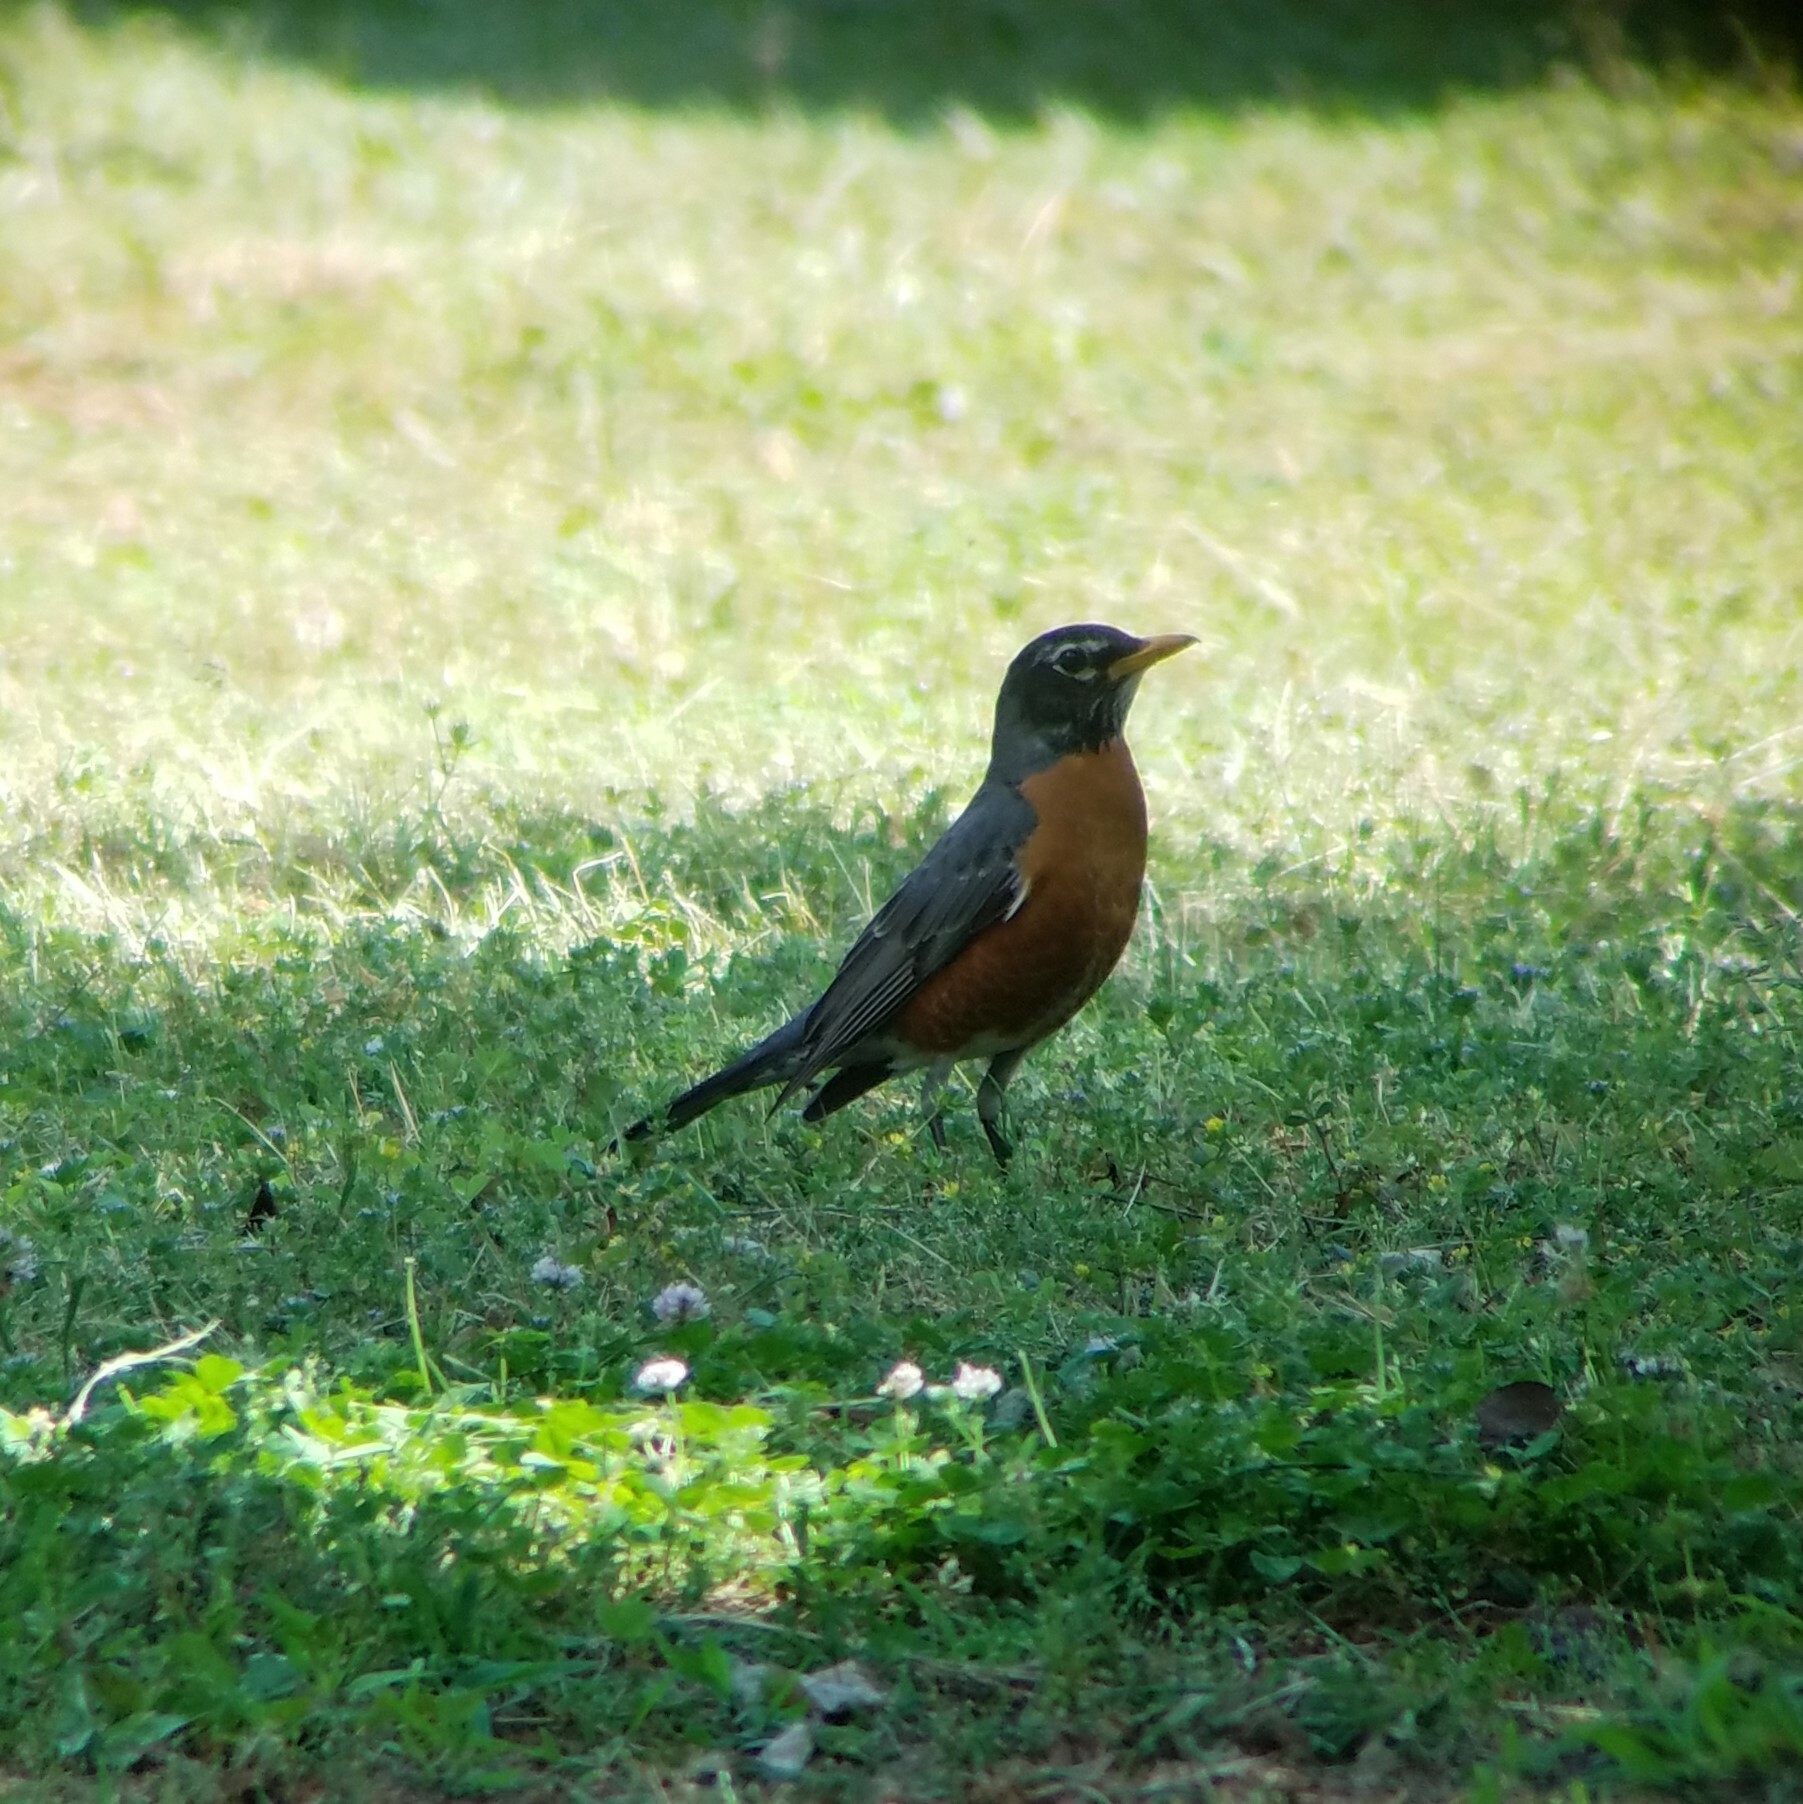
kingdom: Animalia
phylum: Chordata
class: Aves
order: Passeriformes
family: Turdidae
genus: Turdus
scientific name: Turdus migratorius
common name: American robin
